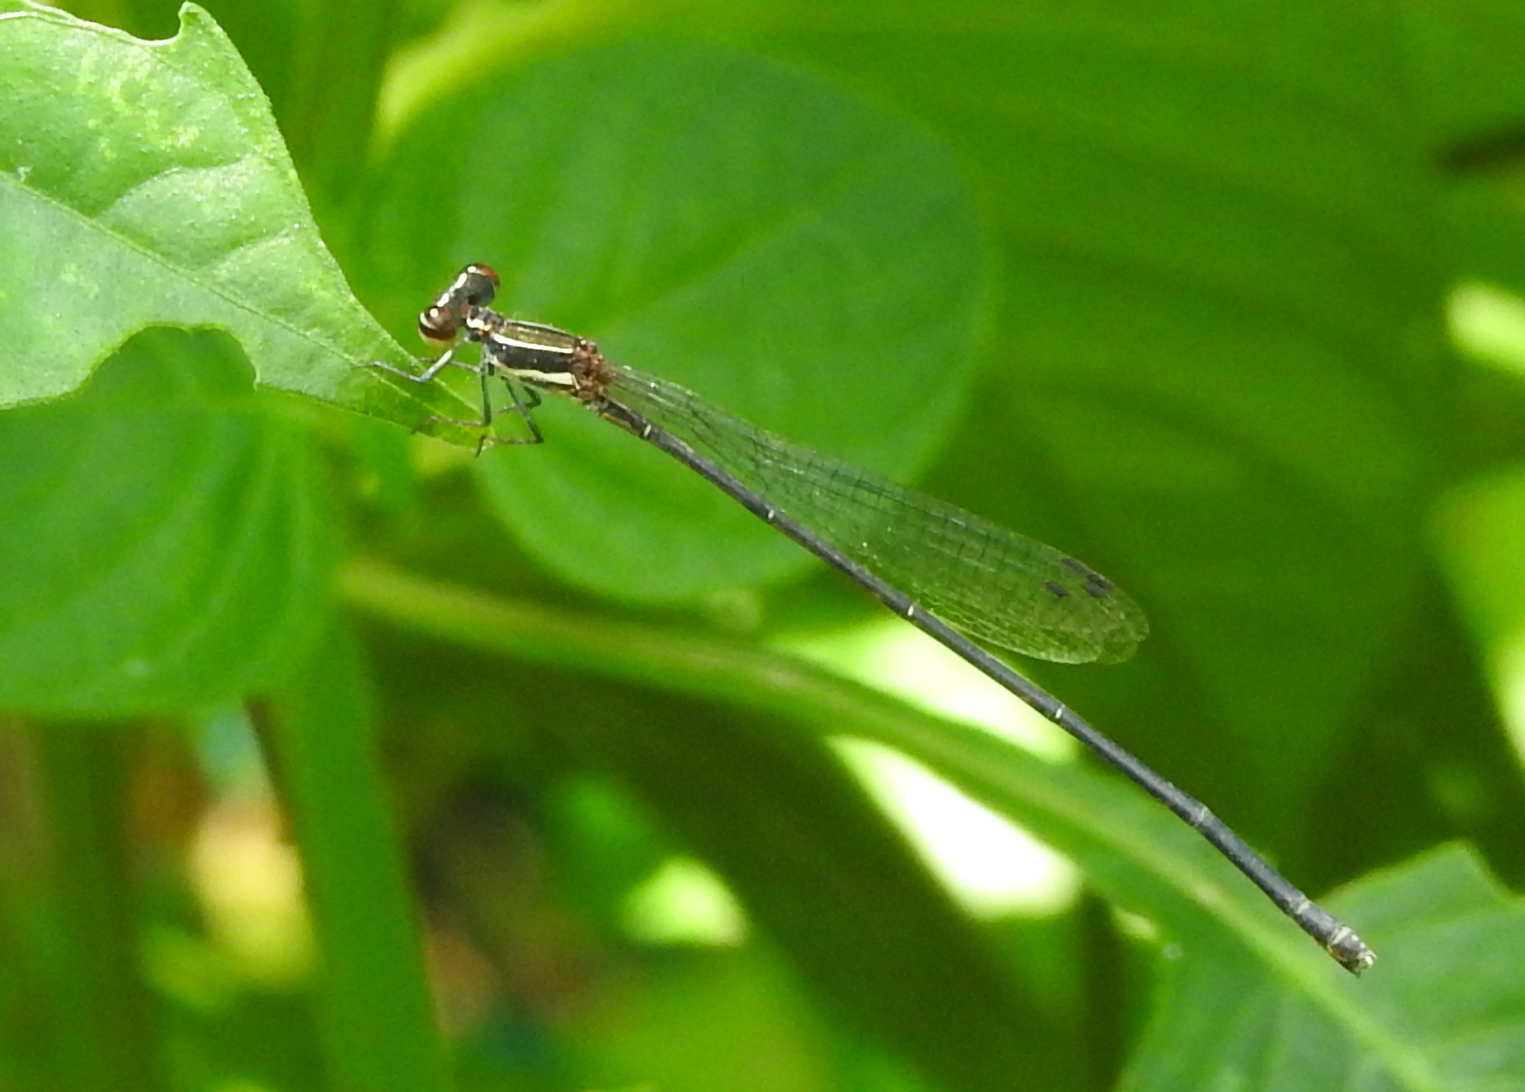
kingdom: Animalia
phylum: Arthropoda
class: Insecta
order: Odonata
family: Platycnemididae
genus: Prodasineura
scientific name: Prodasineura autumnalis
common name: Black threadtail
